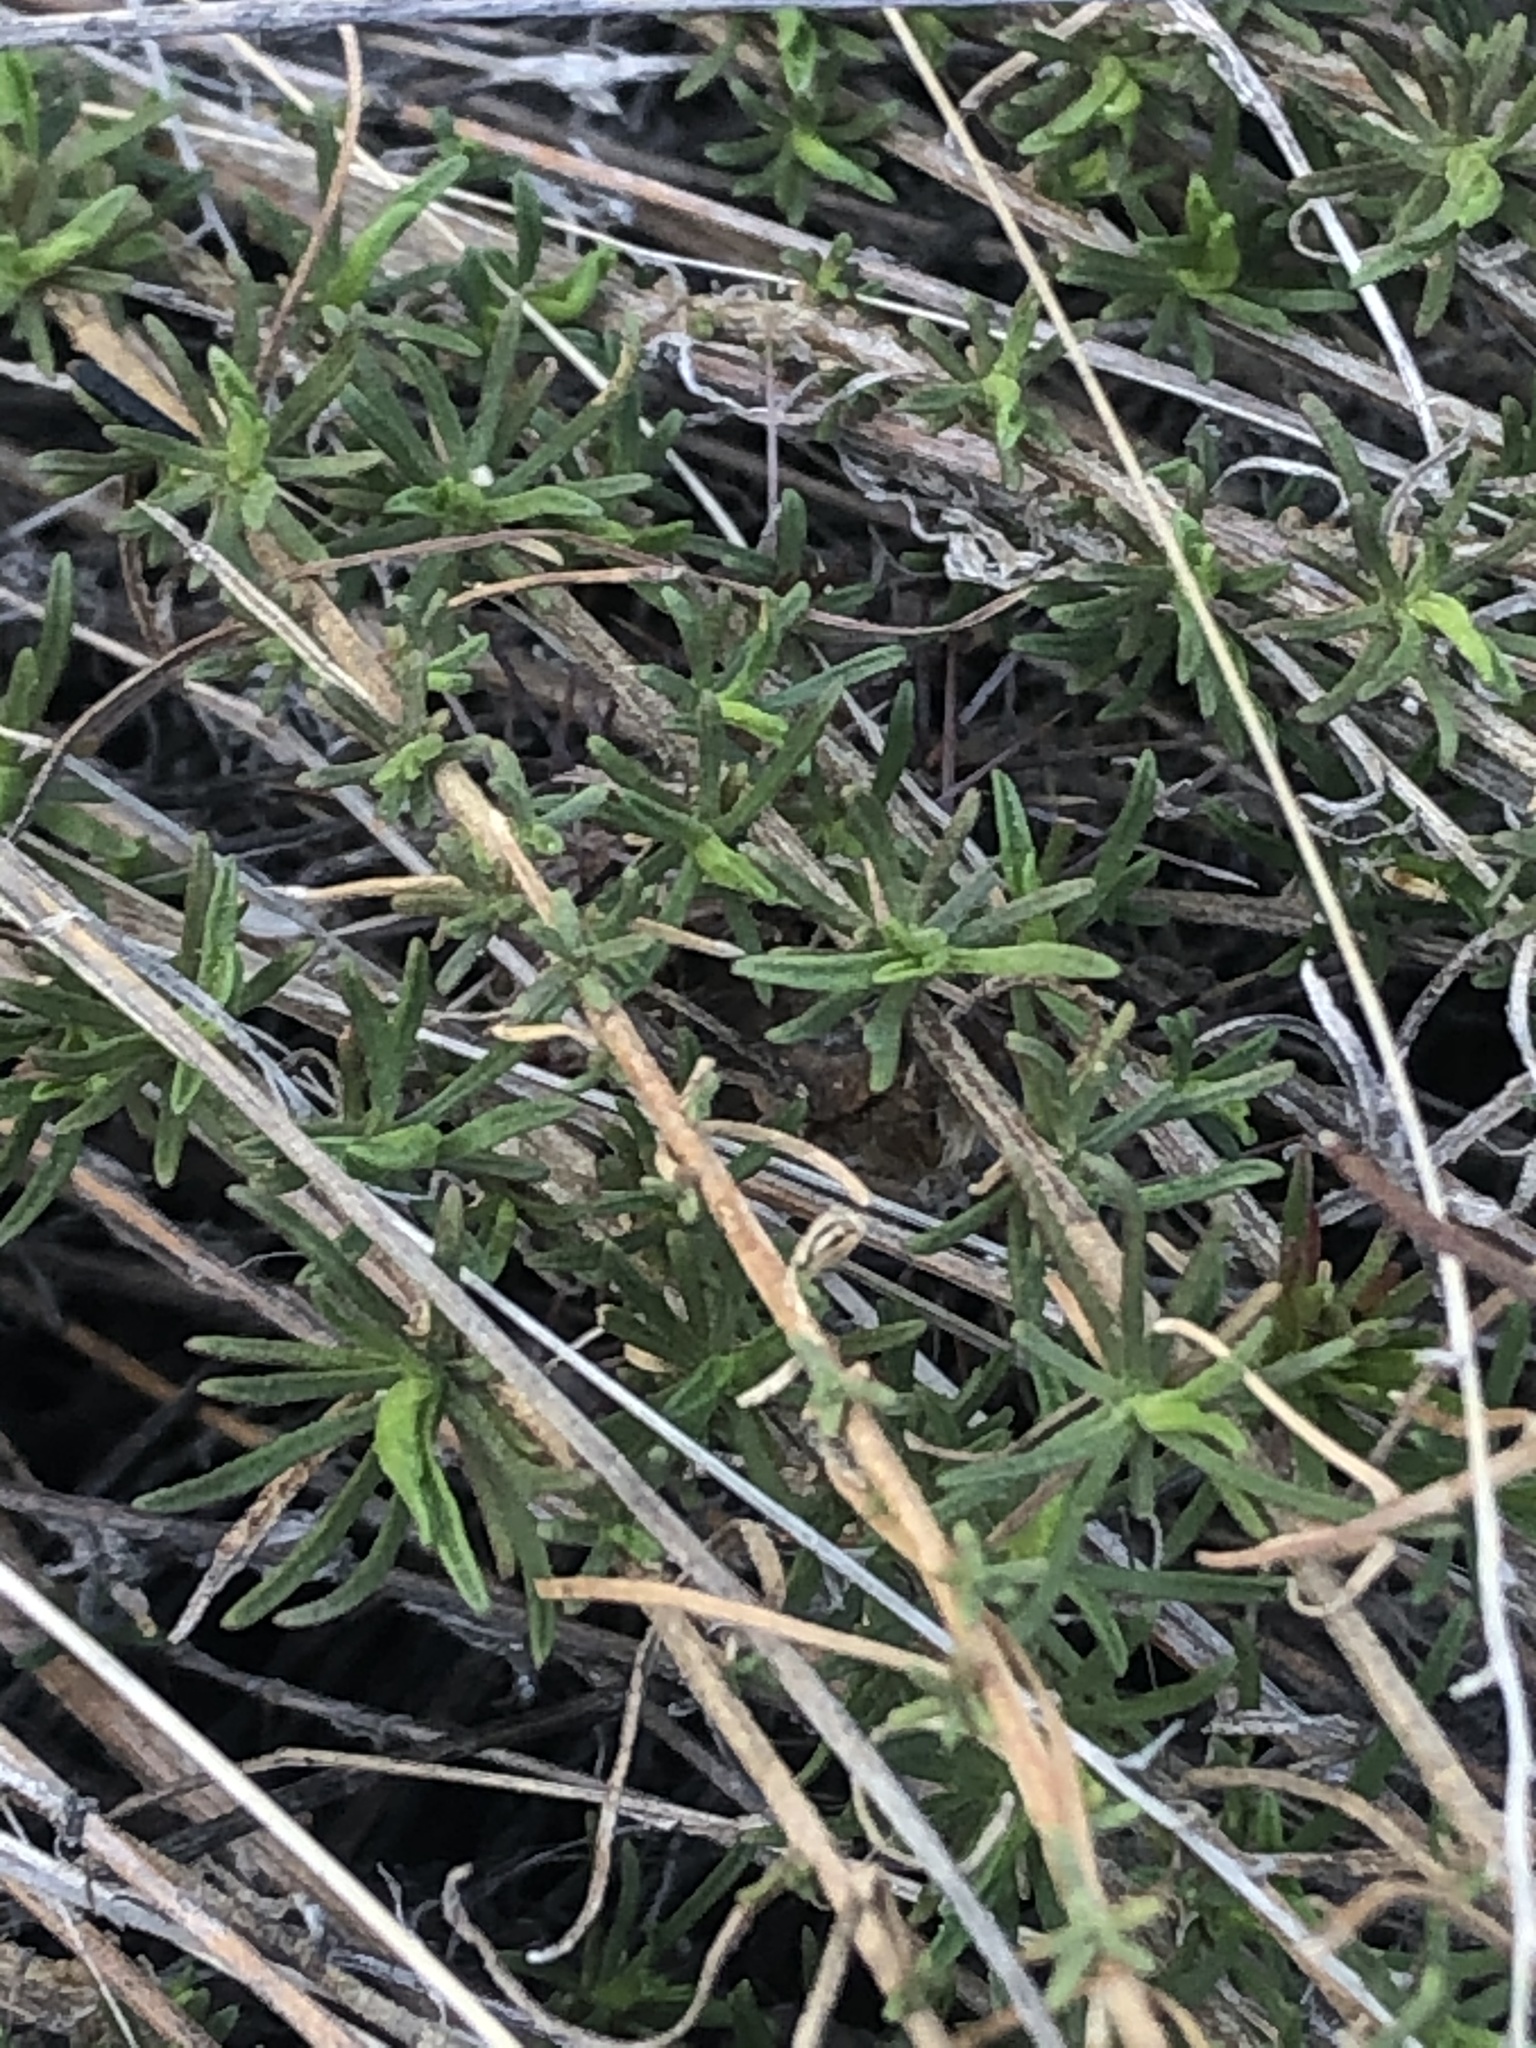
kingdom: Plantae
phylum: Tracheophyta
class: Magnoliopsida
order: Asterales
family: Asteraceae
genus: Gutierrezia
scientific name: Gutierrezia sarothrae
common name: Broom snakeweed
